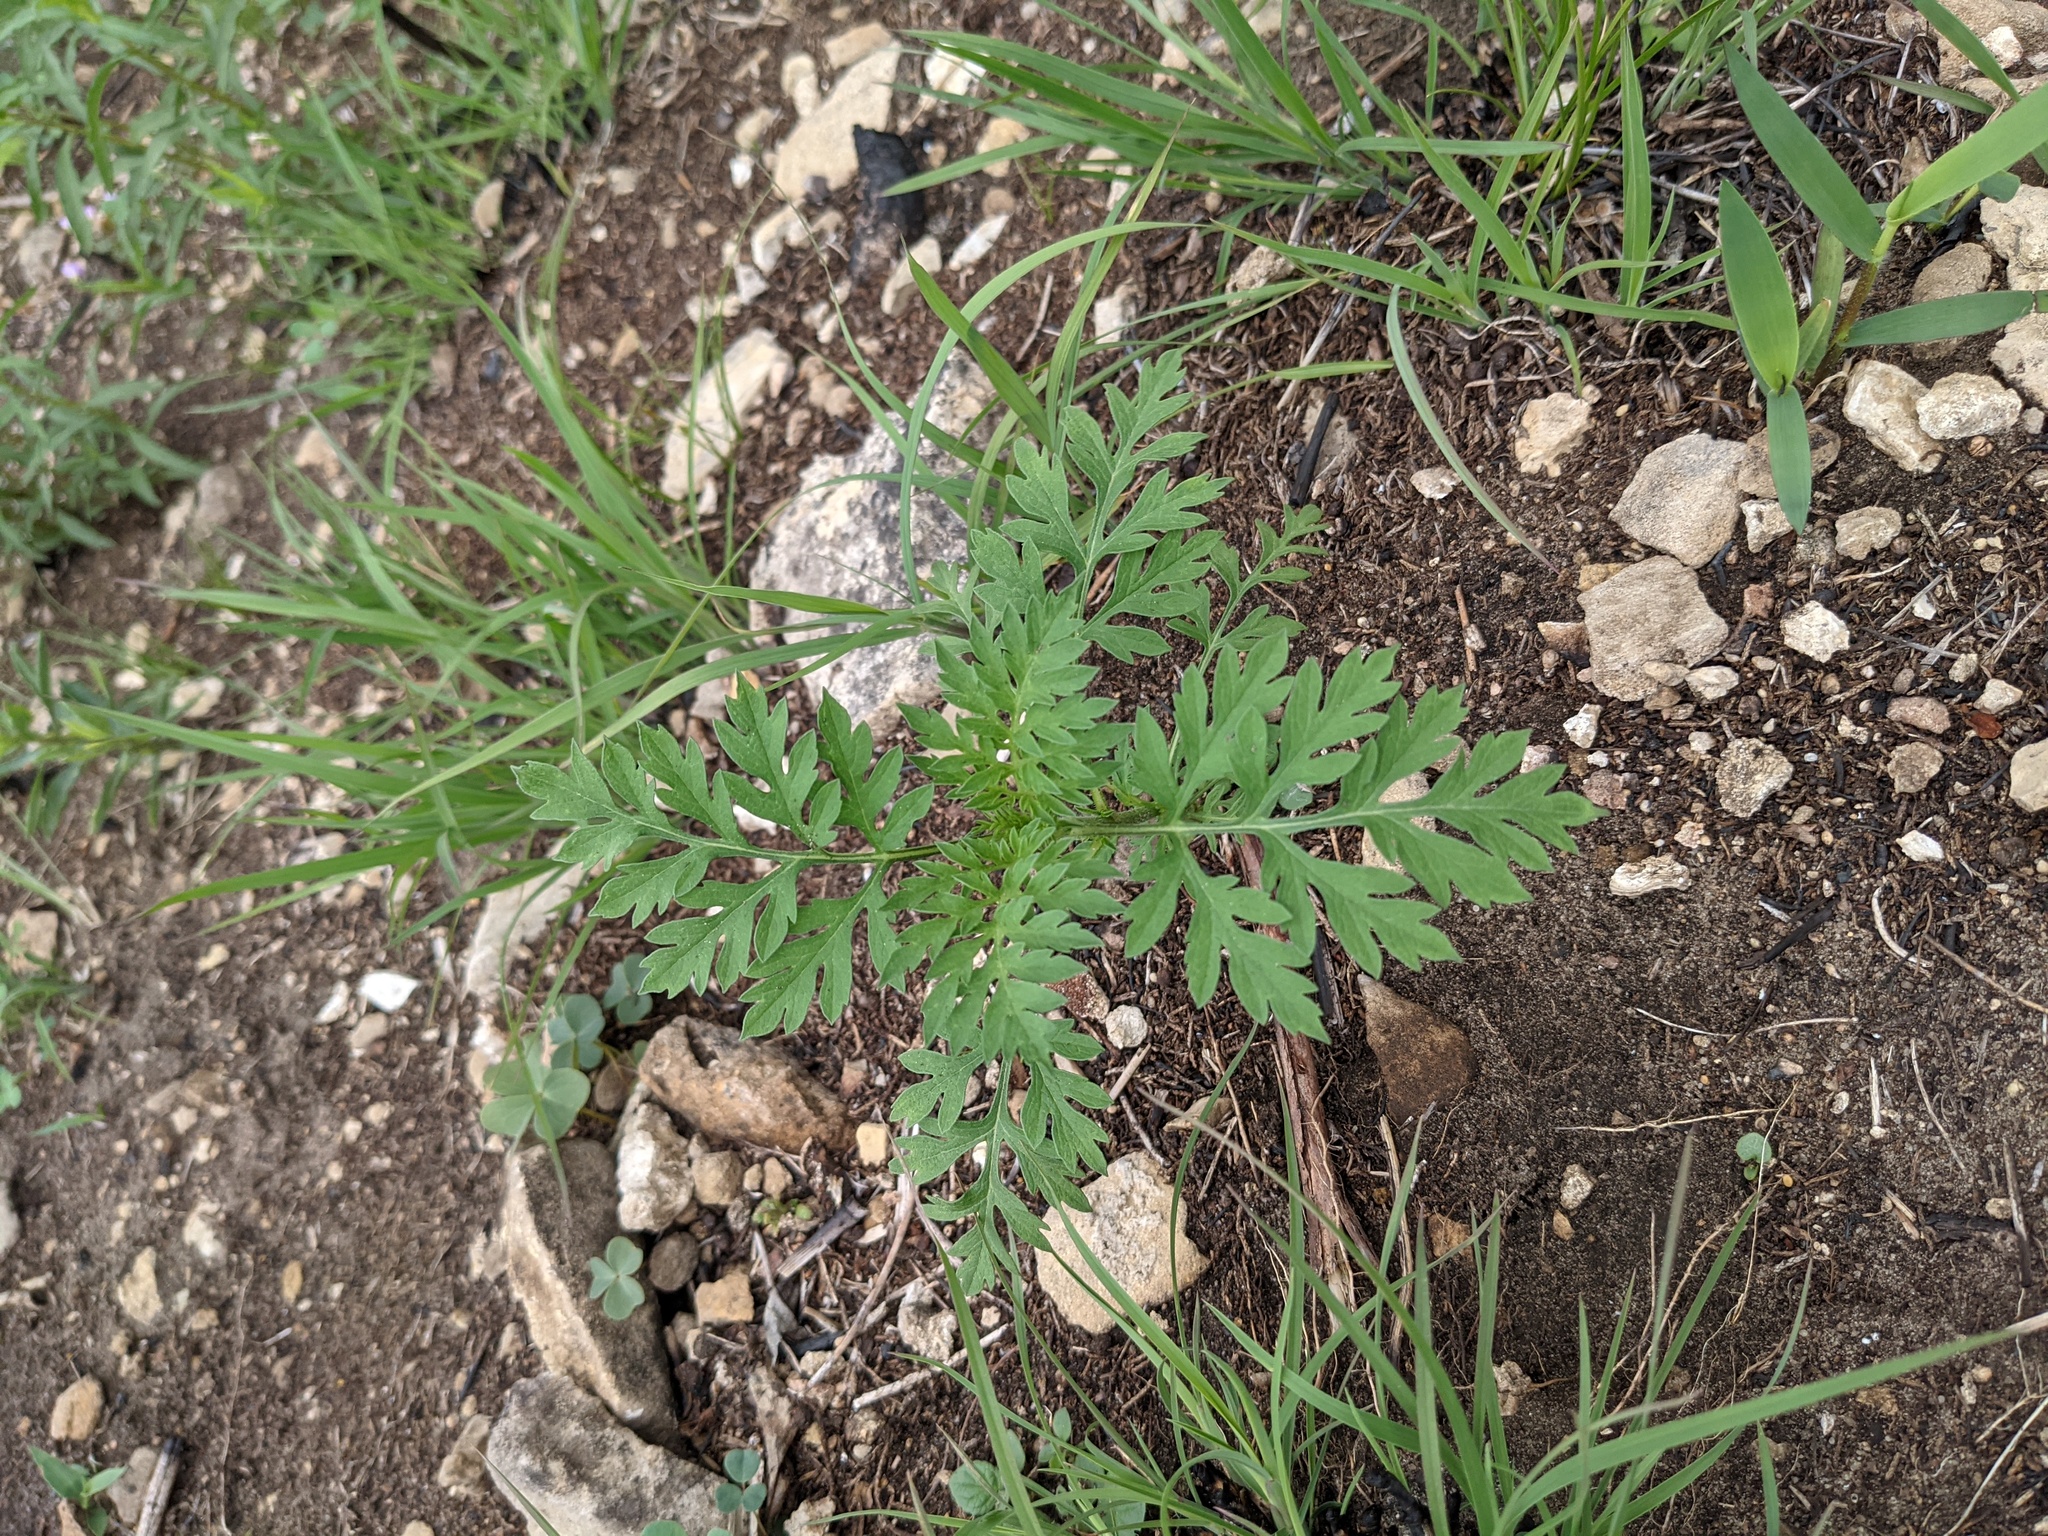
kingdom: Plantae
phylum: Tracheophyta
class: Magnoliopsida
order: Asterales
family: Asteraceae
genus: Ambrosia
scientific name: Ambrosia artemisiifolia
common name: Annual ragweed
